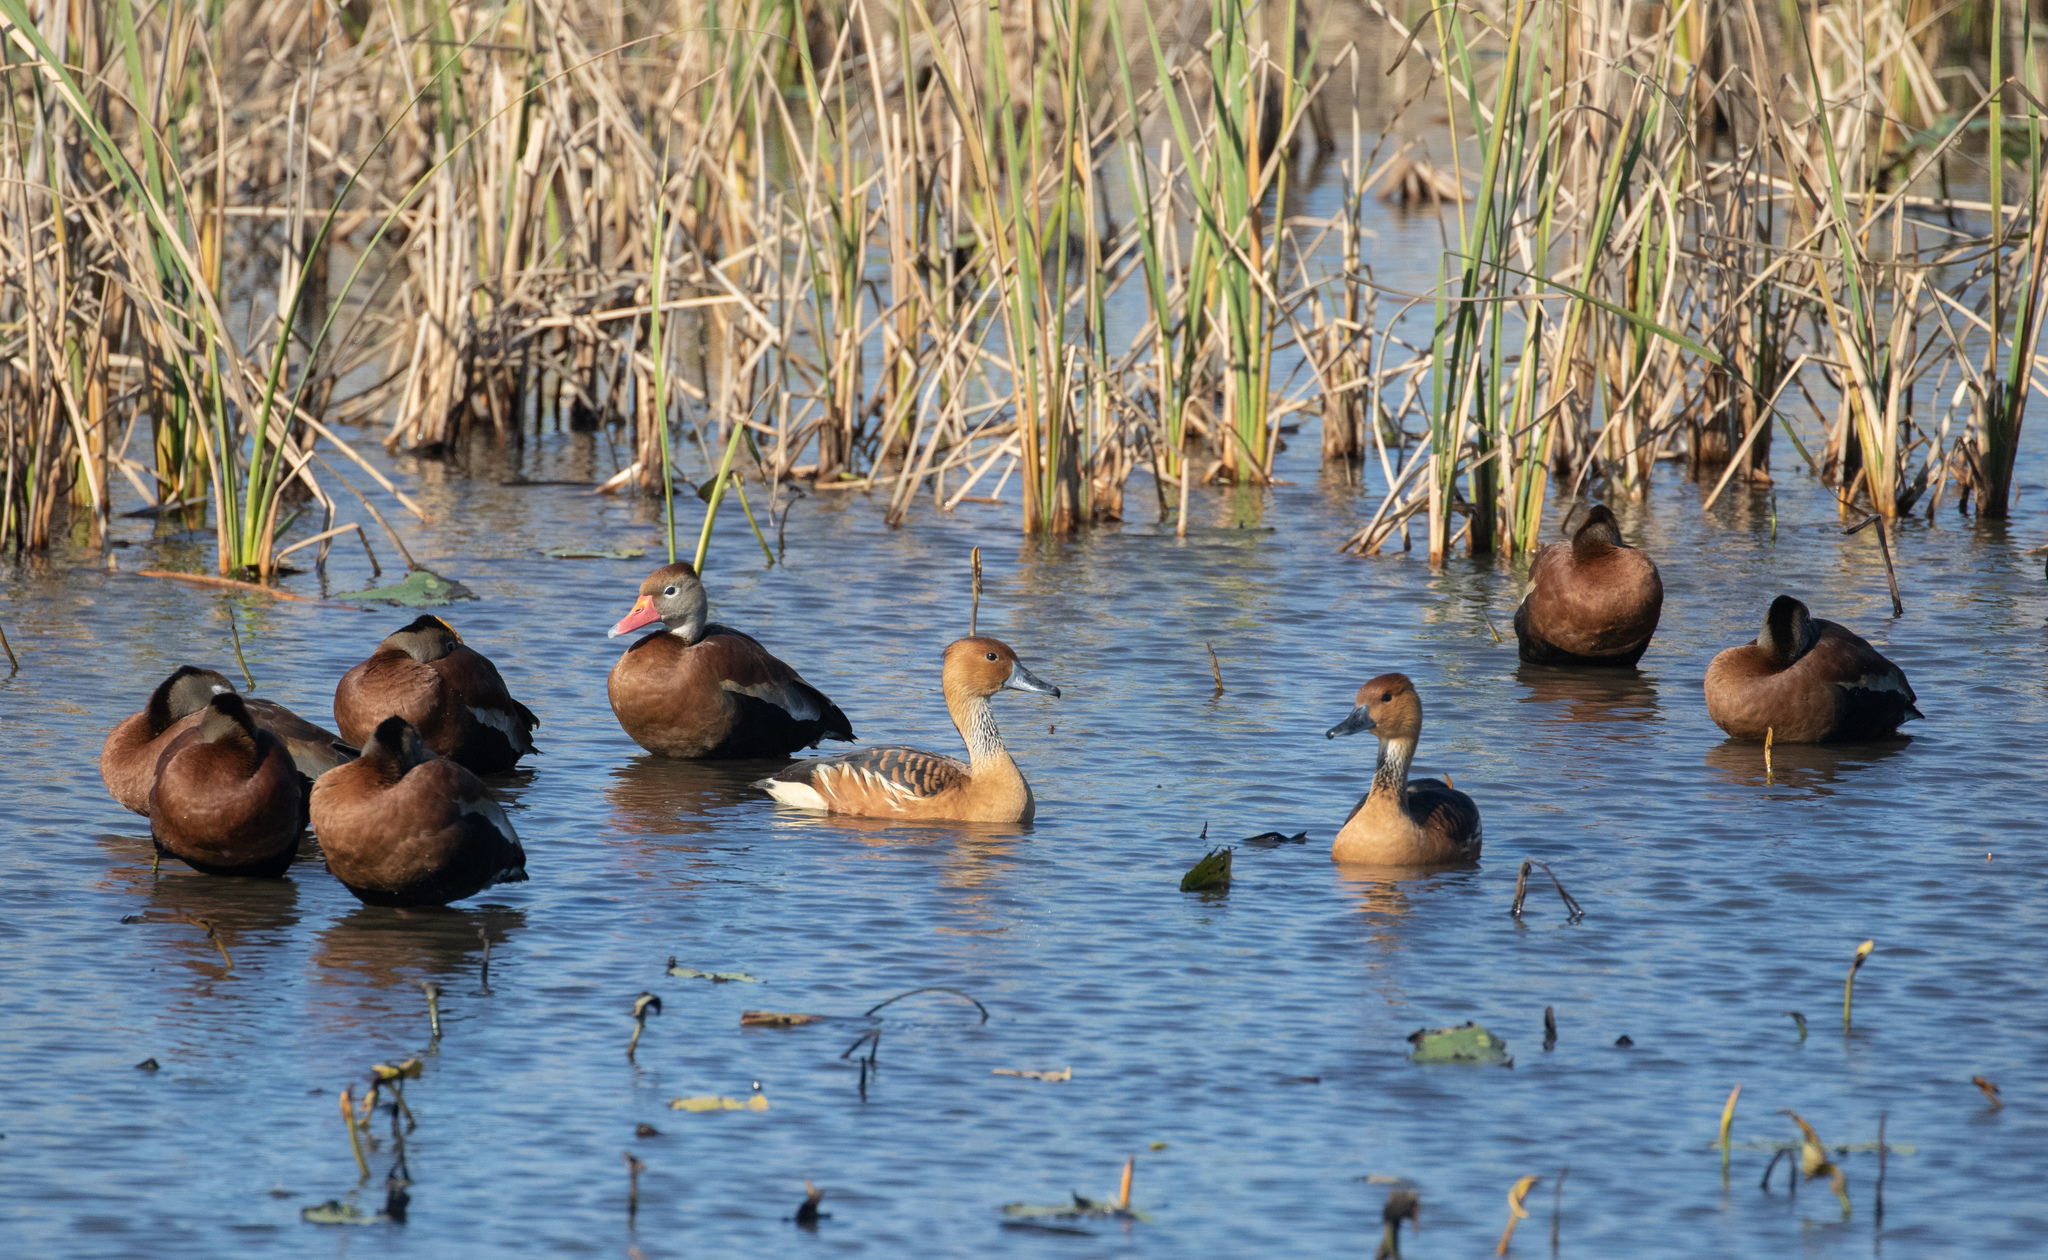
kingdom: Animalia
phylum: Chordata
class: Aves
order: Anseriformes
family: Anatidae
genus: Dendrocygna
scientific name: Dendrocygna bicolor
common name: Fulvous whistling duck
